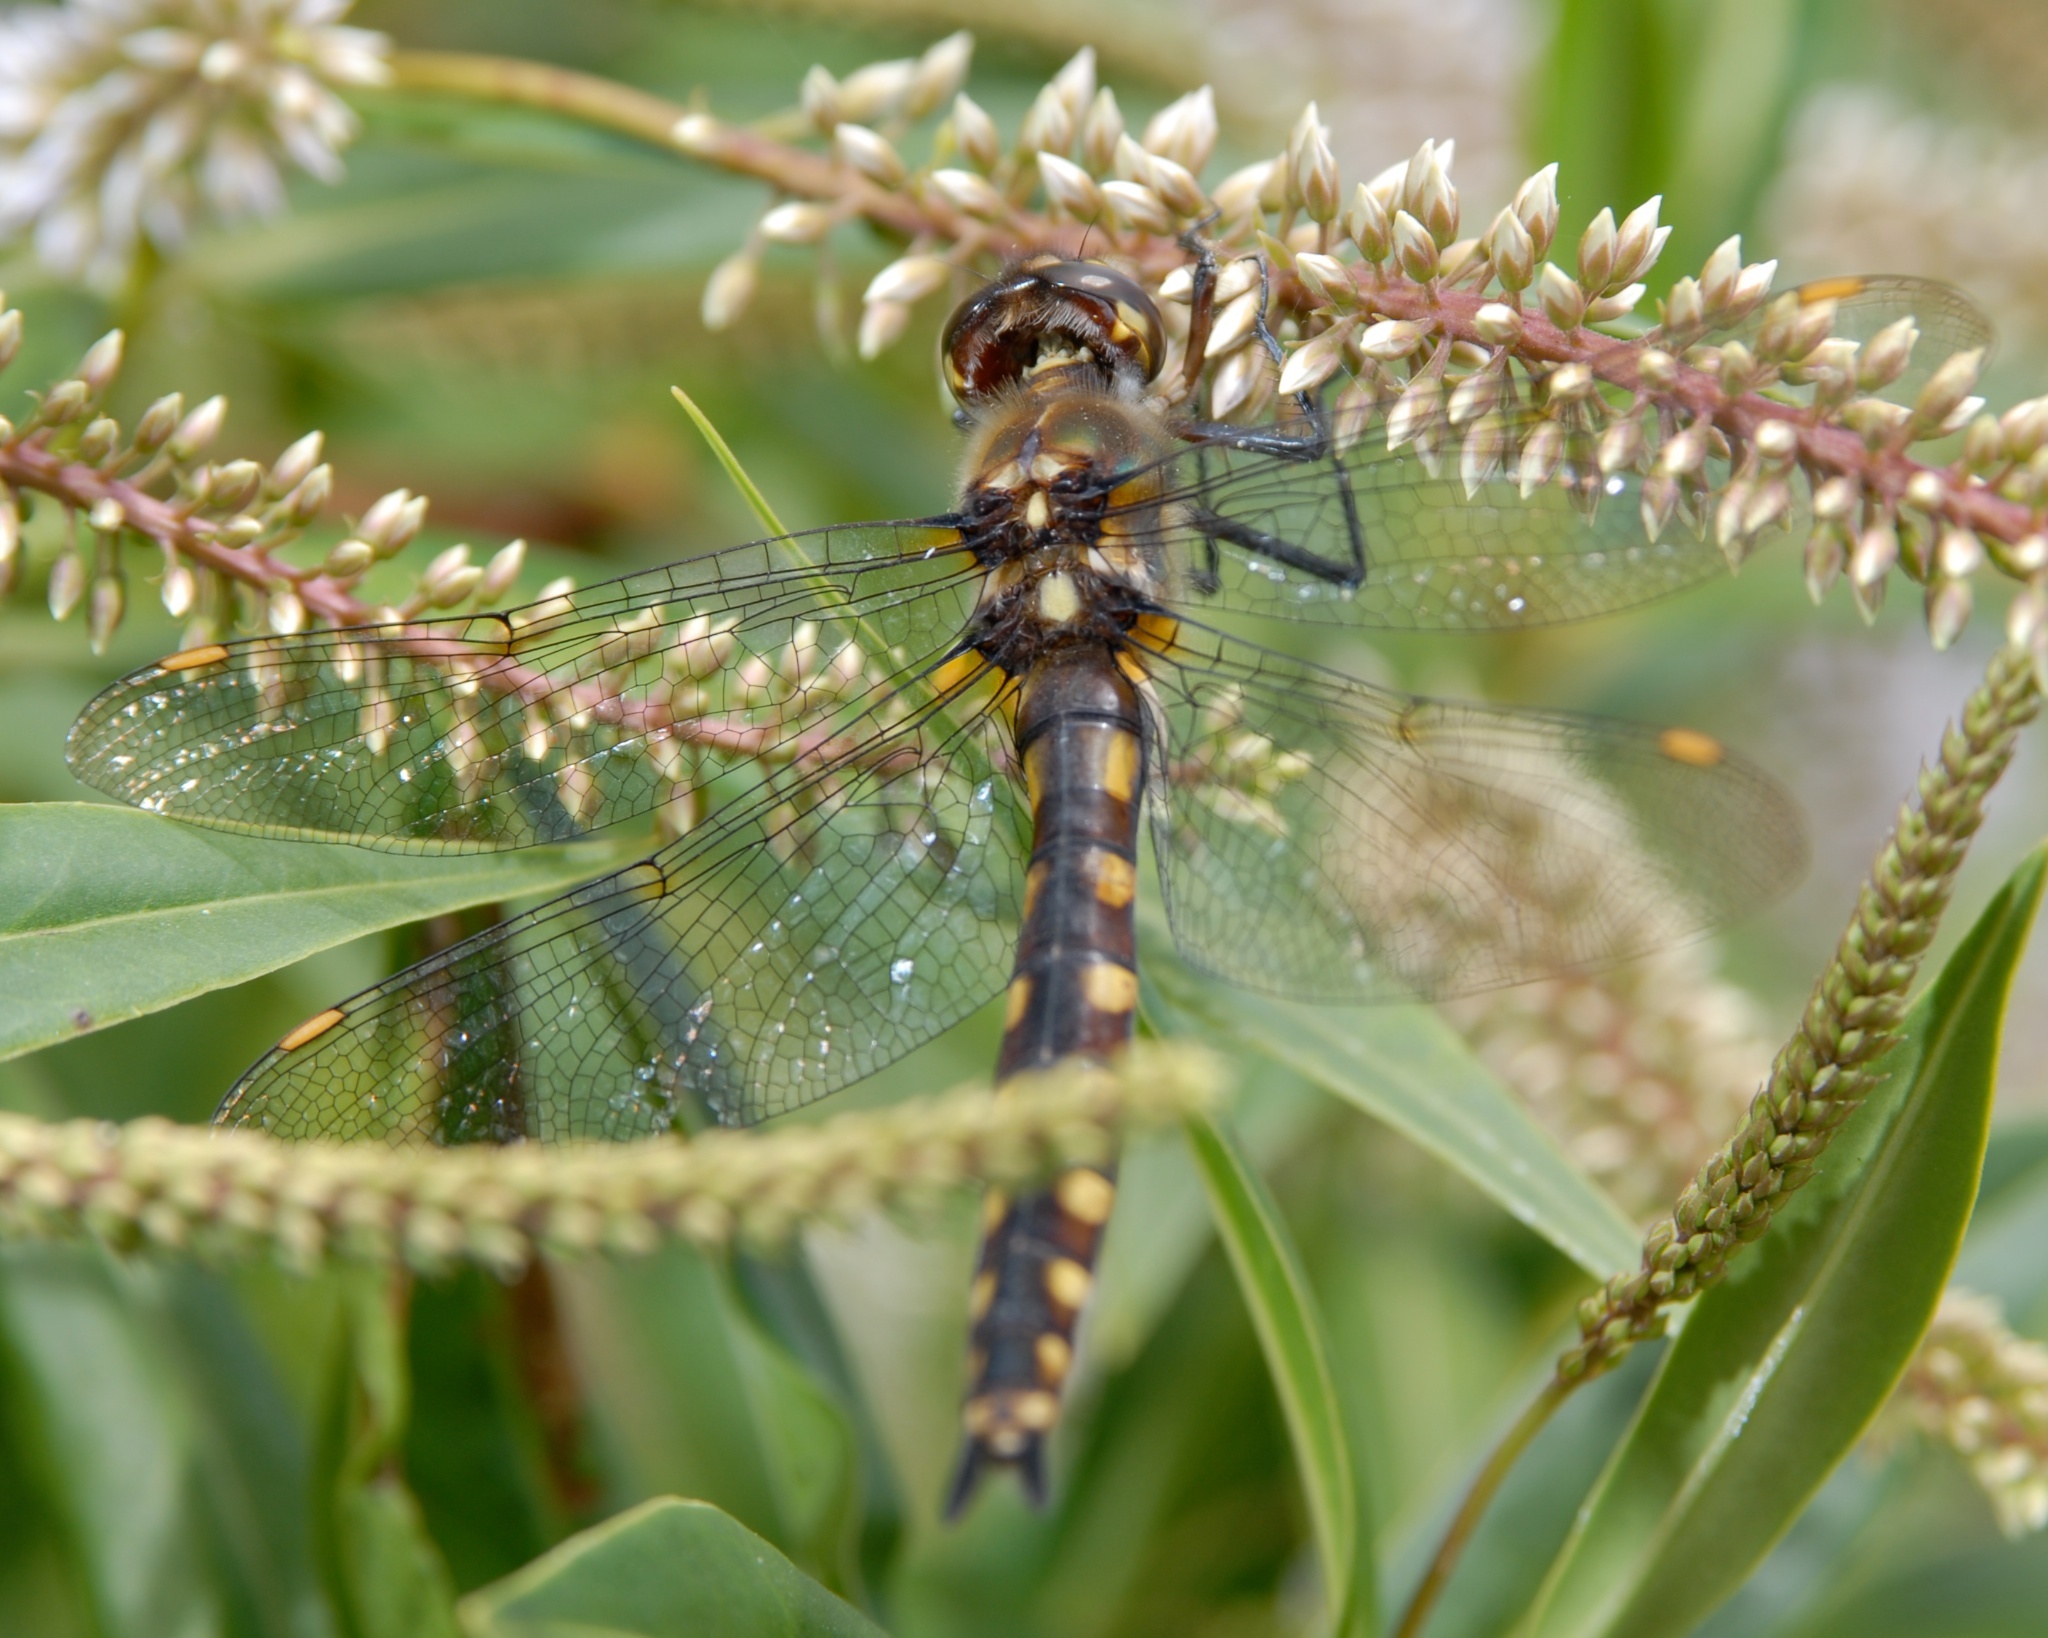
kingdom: Animalia
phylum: Arthropoda
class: Insecta
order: Odonata
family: Corduliidae
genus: Procordulia
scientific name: Procordulia grayi
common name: Yellow spotted dragonfly
